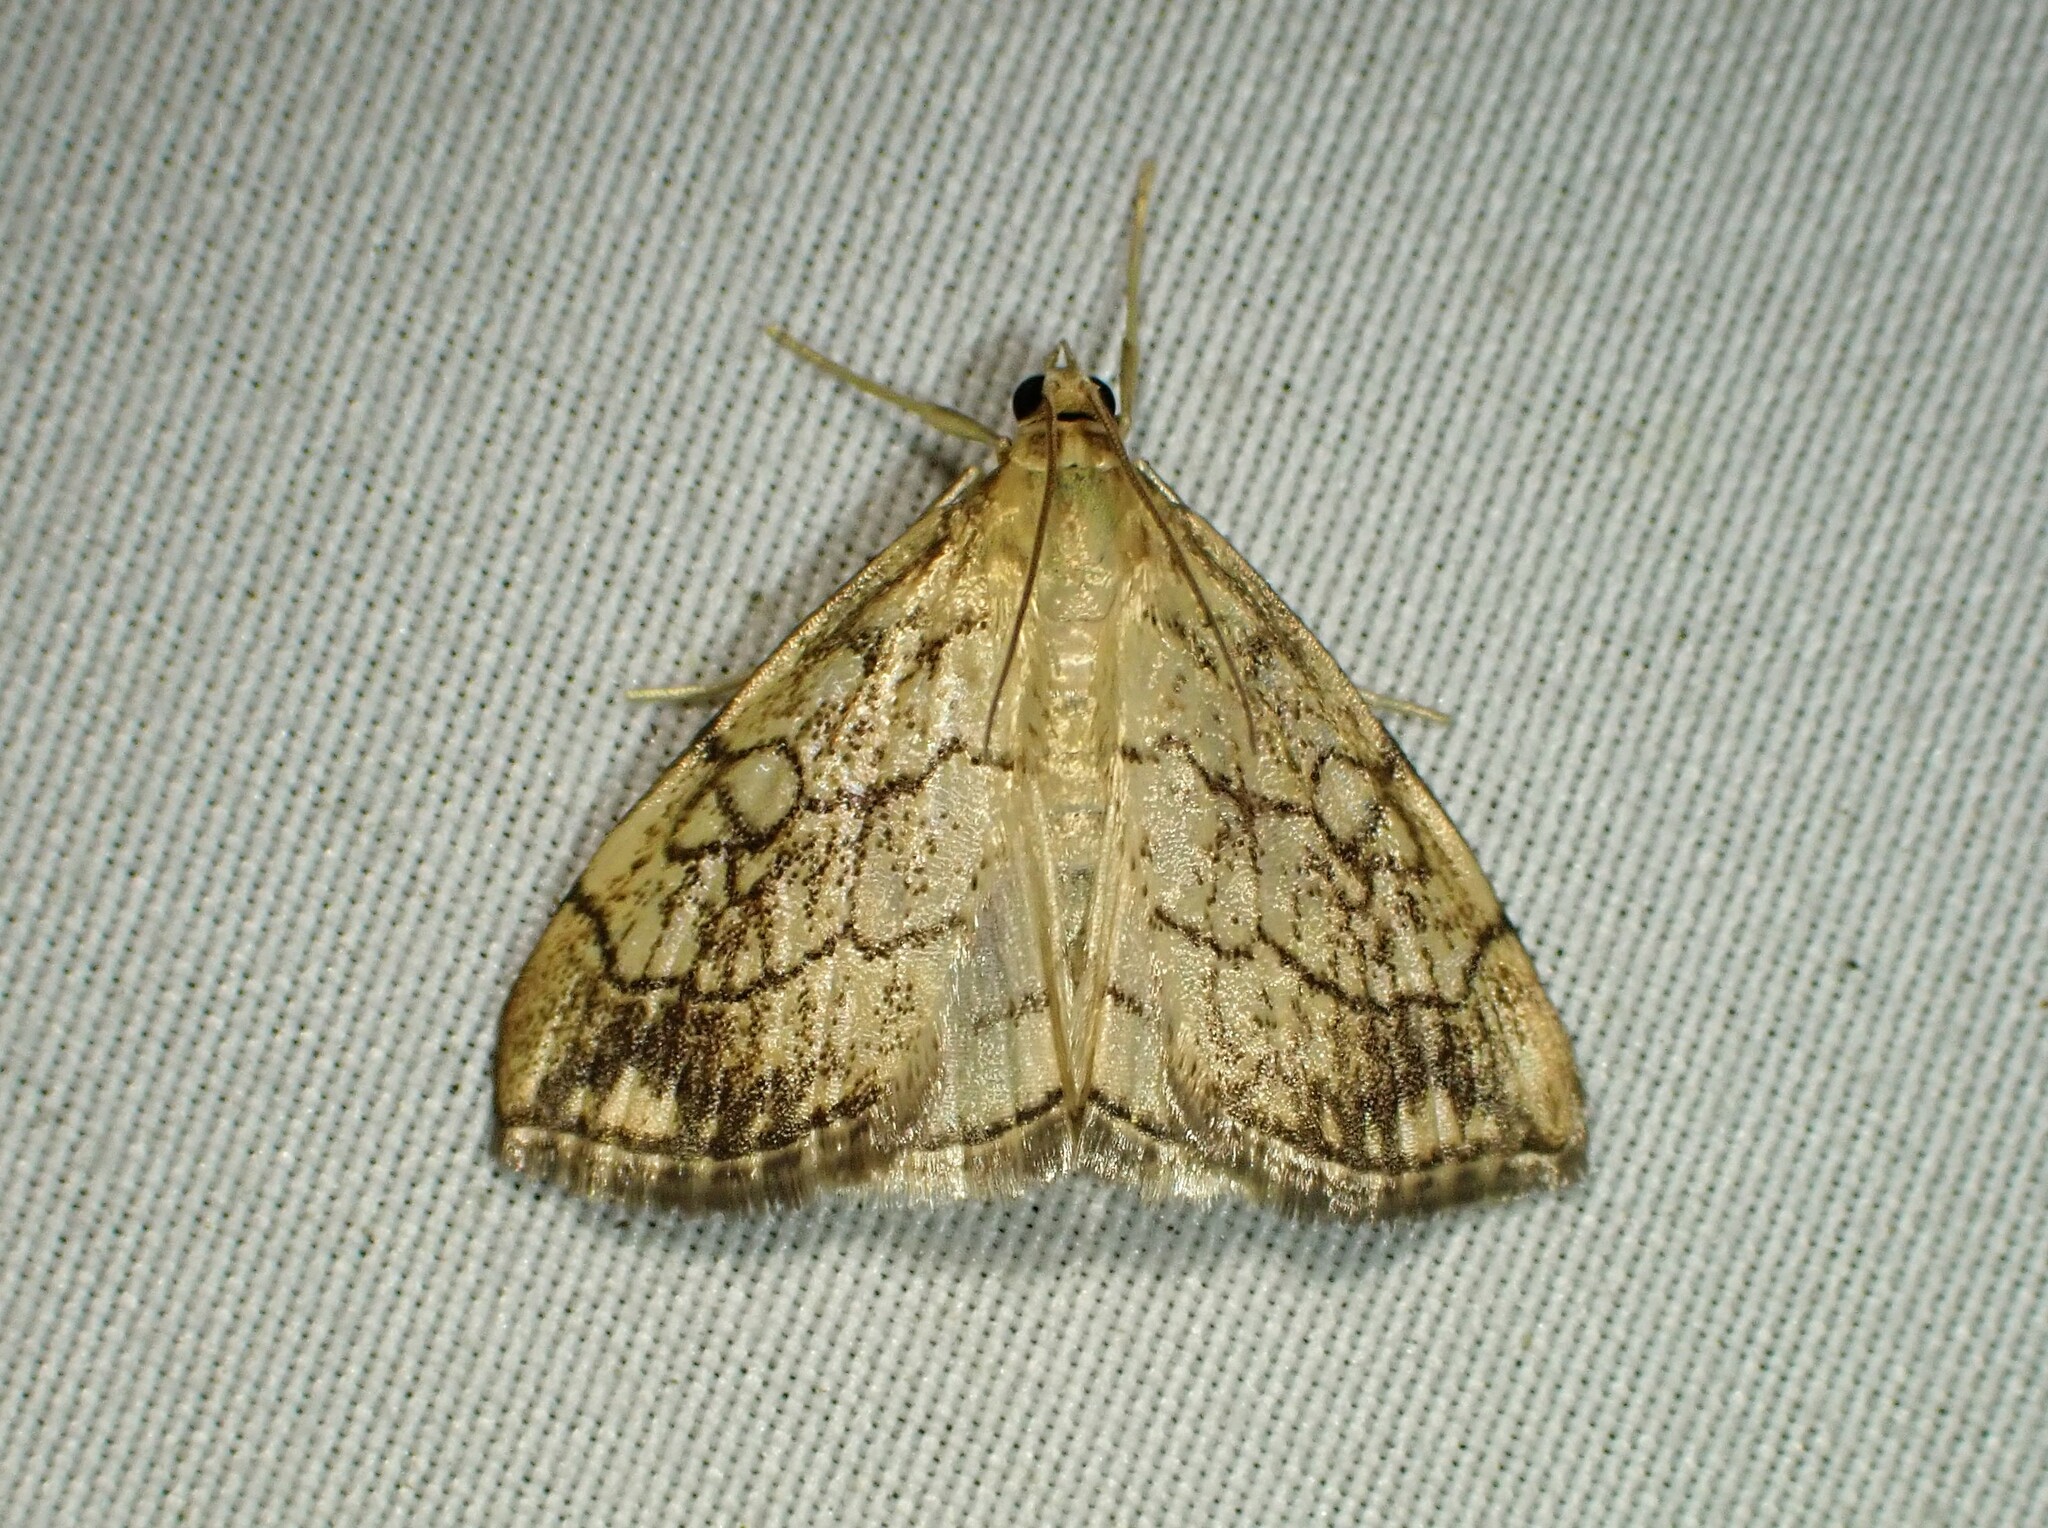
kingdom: Animalia
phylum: Arthropoda
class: Insecta
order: Lepidoptera
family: Crambidae
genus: Evergestis
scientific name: Evergestis pallidata
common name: Chequered pearl
